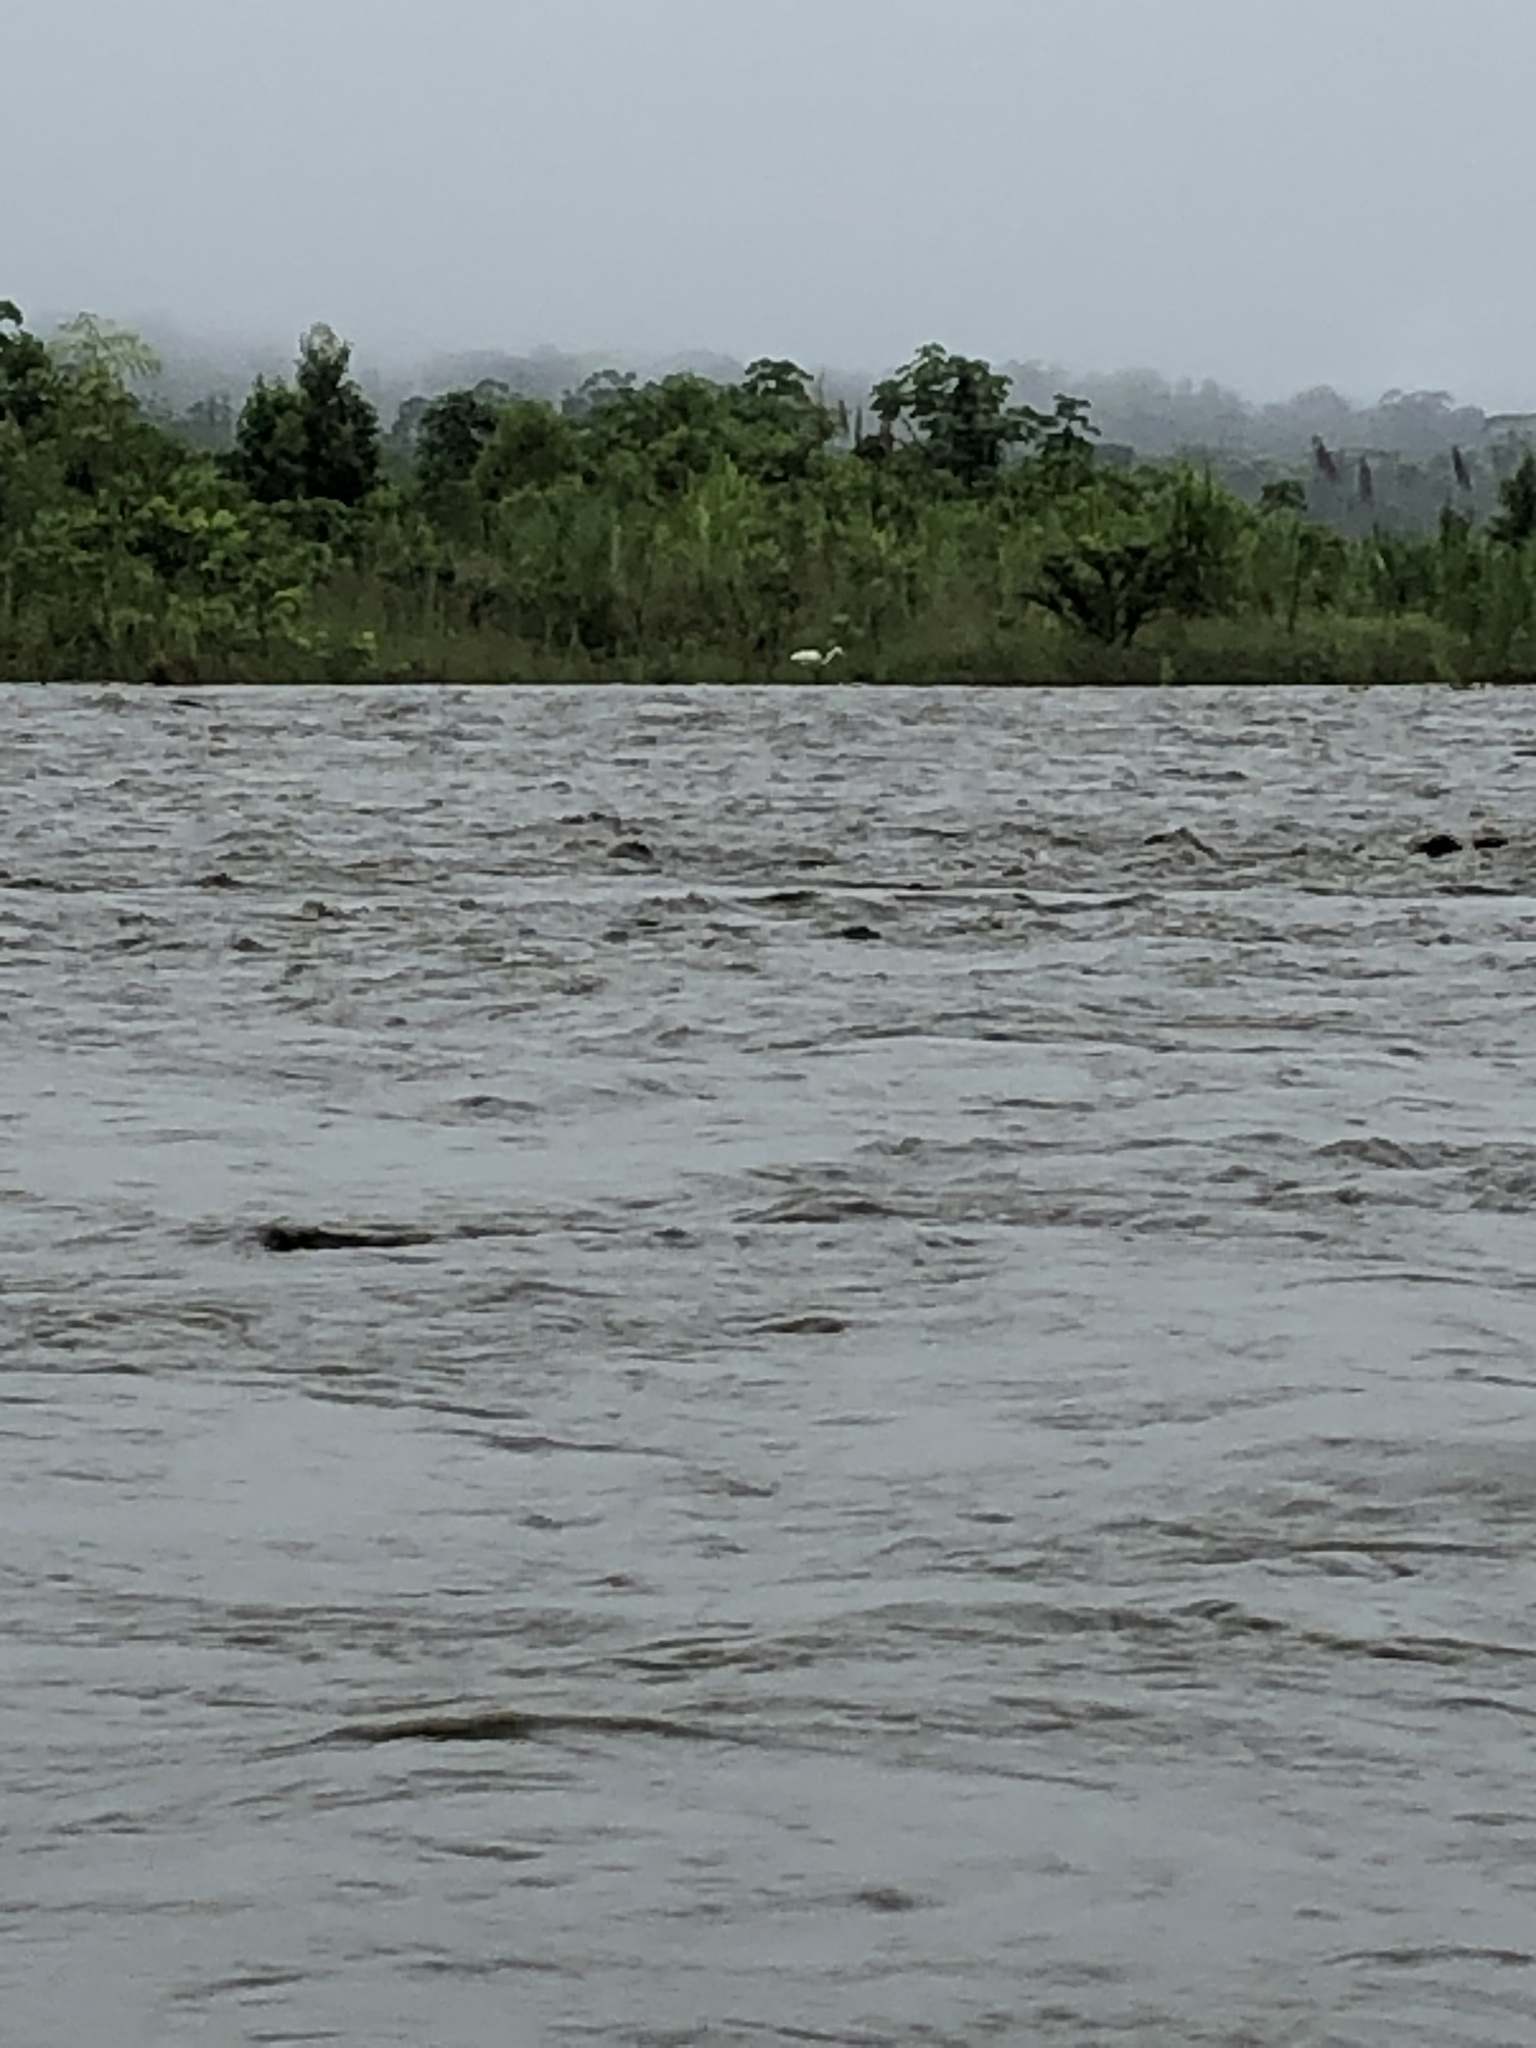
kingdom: Animalia
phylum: Chordata
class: Aves
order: Pelecaniformes
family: Ardeidae
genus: Ardea
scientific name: Ardea alba
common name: Great egret
